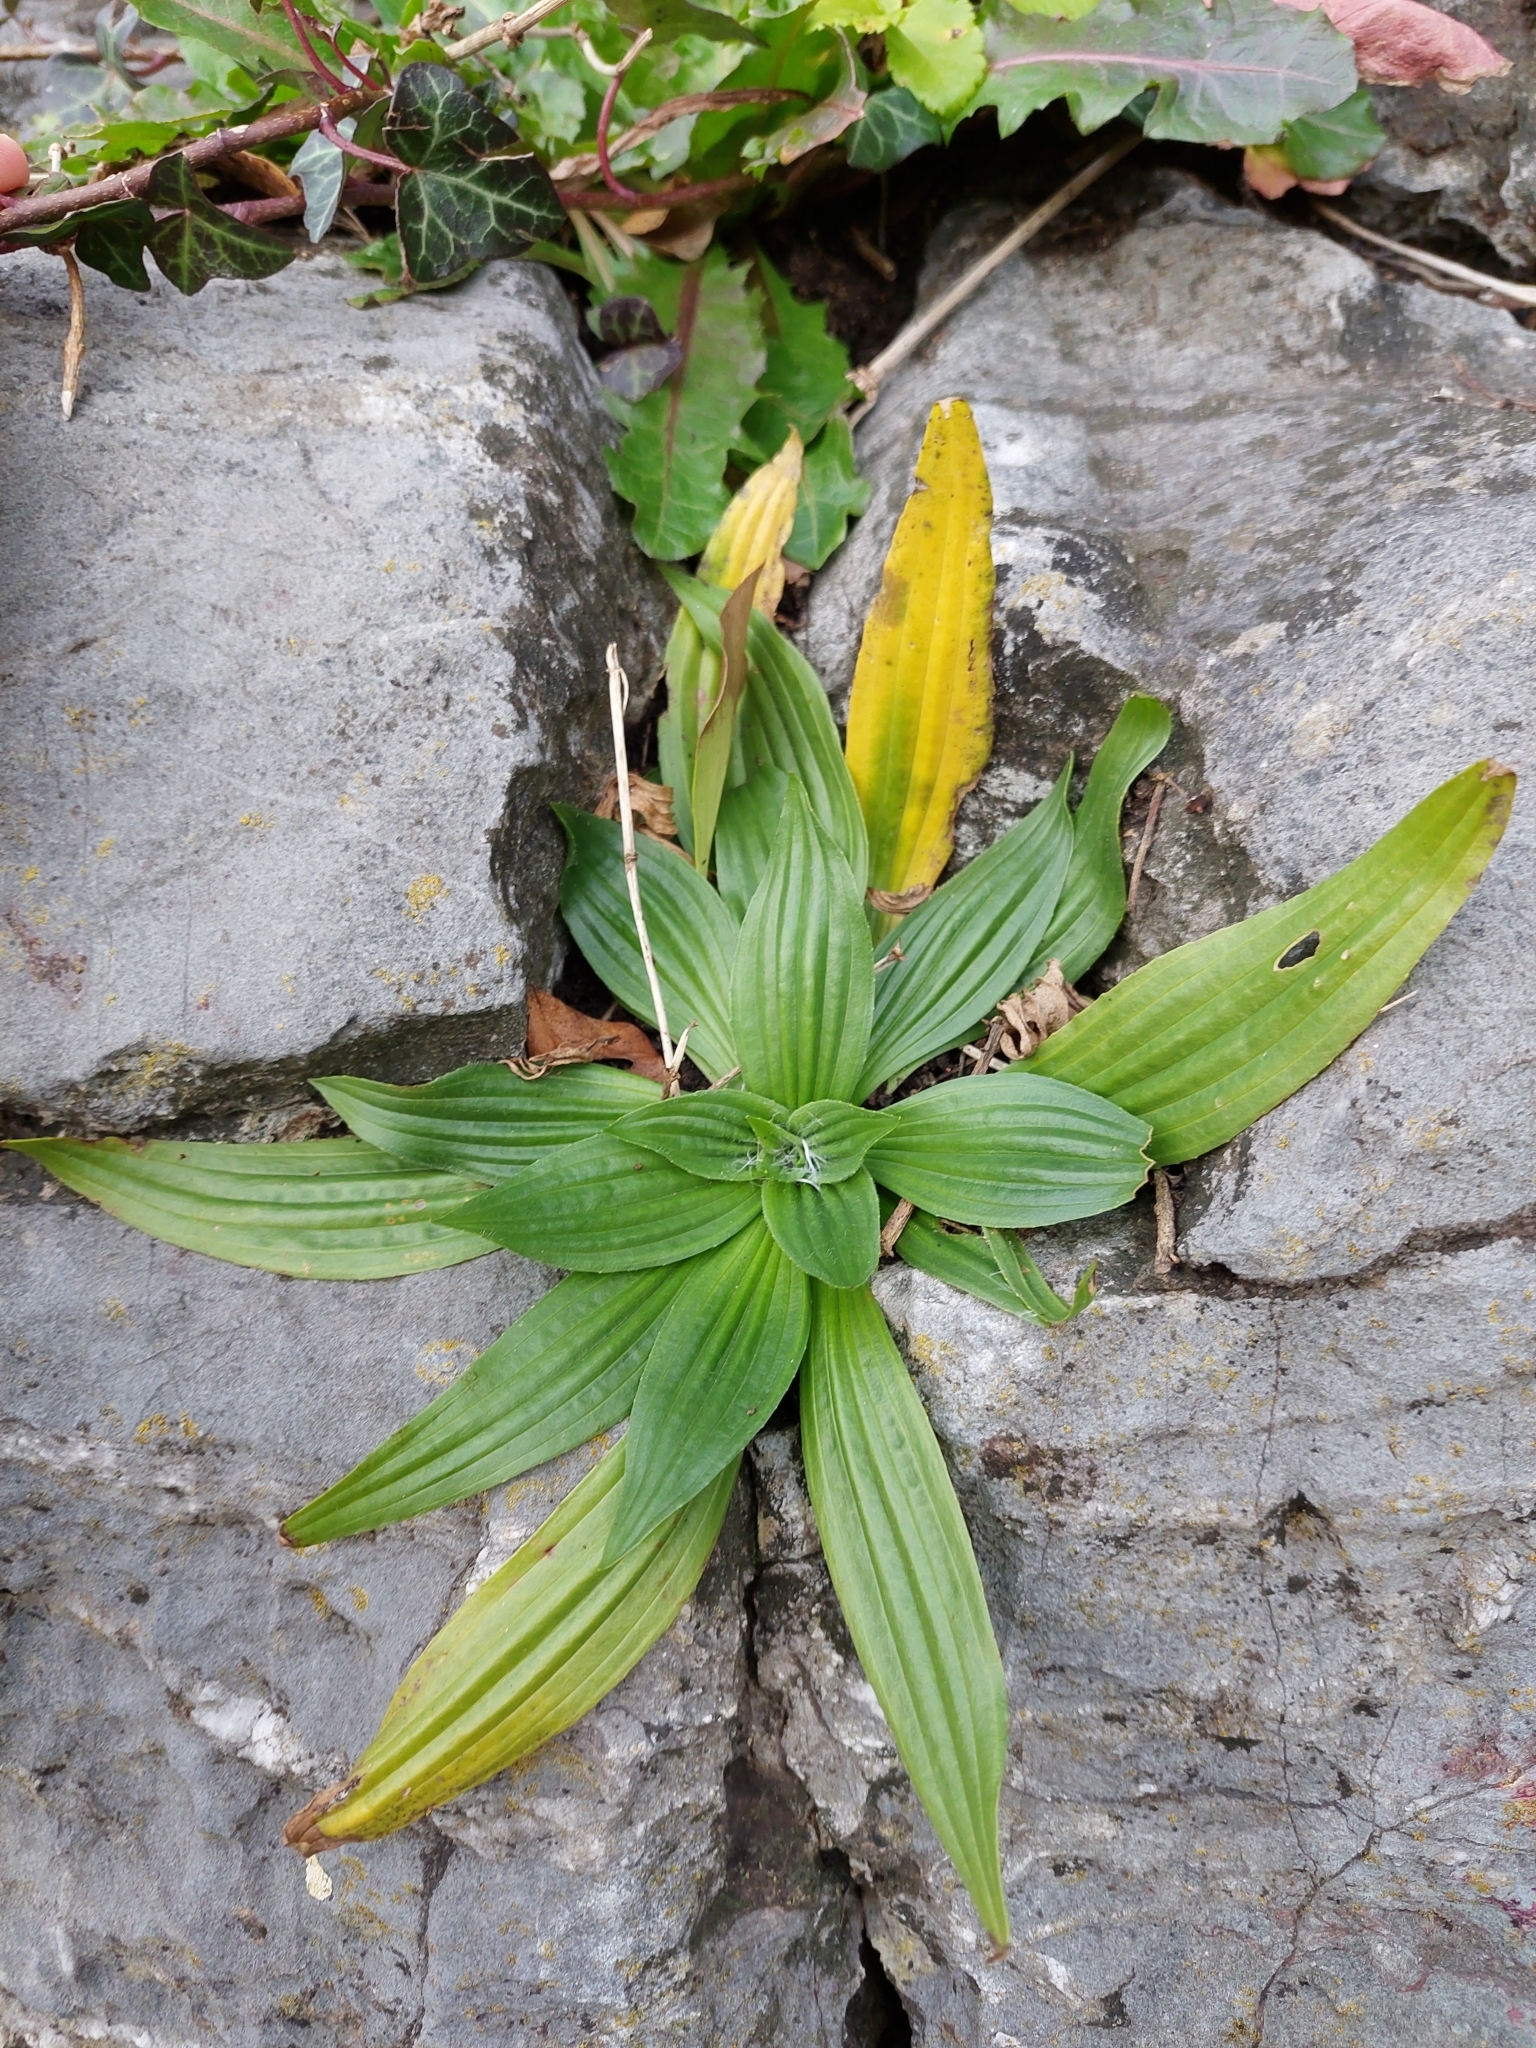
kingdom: Plantae
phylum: Tracheophyta
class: Magnoliopsida
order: Lamiales
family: Plantaginaceae
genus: Plantago
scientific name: Plantago lanceolata
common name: Ribwort plantain
